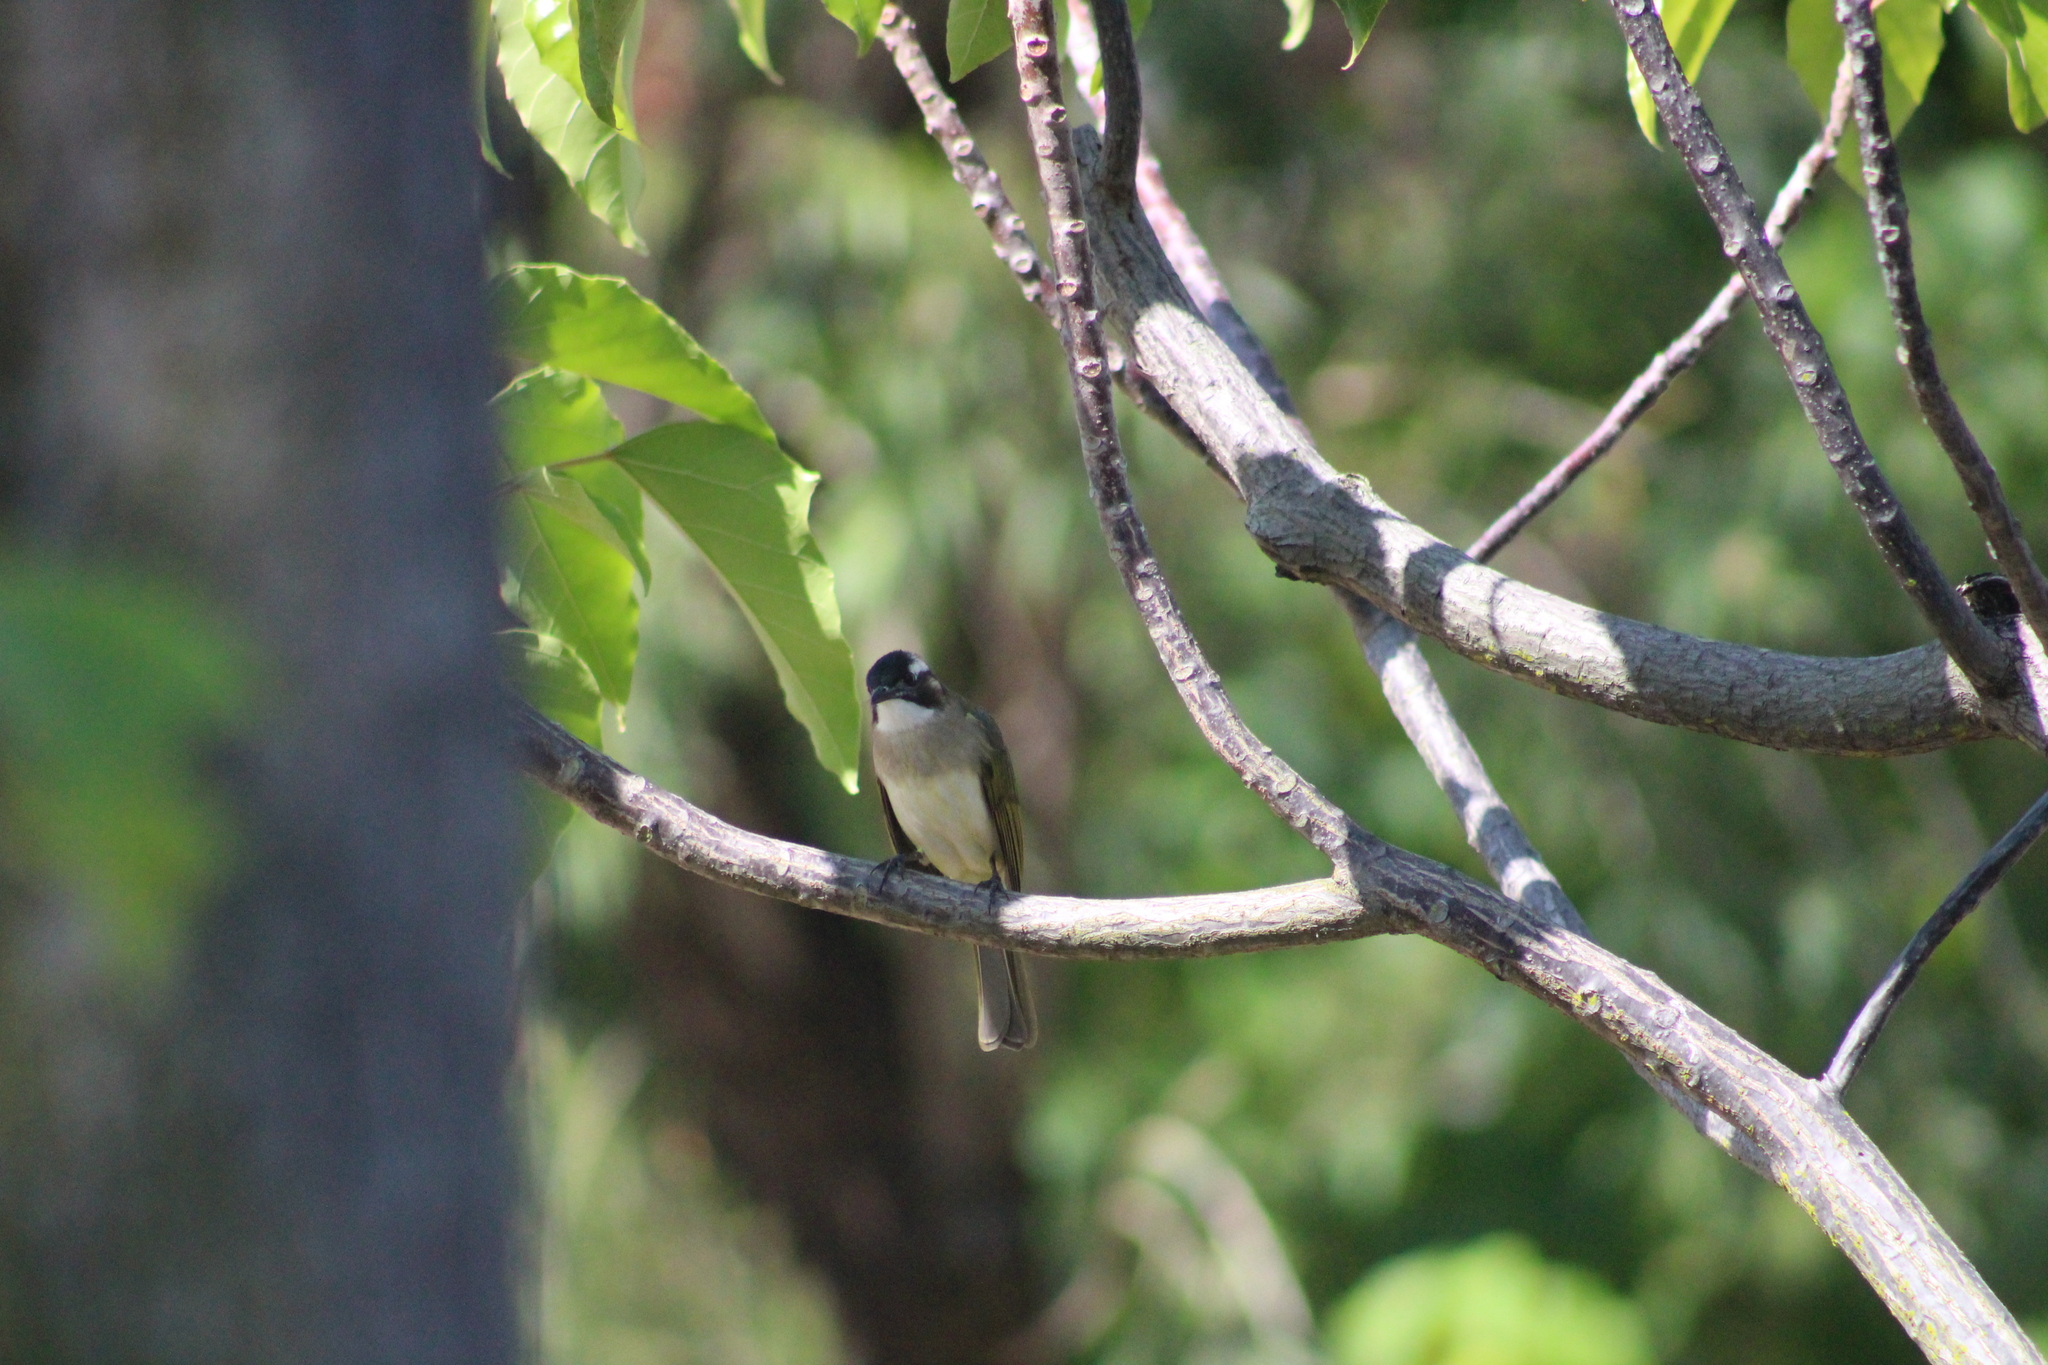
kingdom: Animalia
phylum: Chordata
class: Aves
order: Passeriformes
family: Pycnonotidae
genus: Pycnonotus
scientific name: Pycnonotus sinensis
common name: Light-vented bulbul
